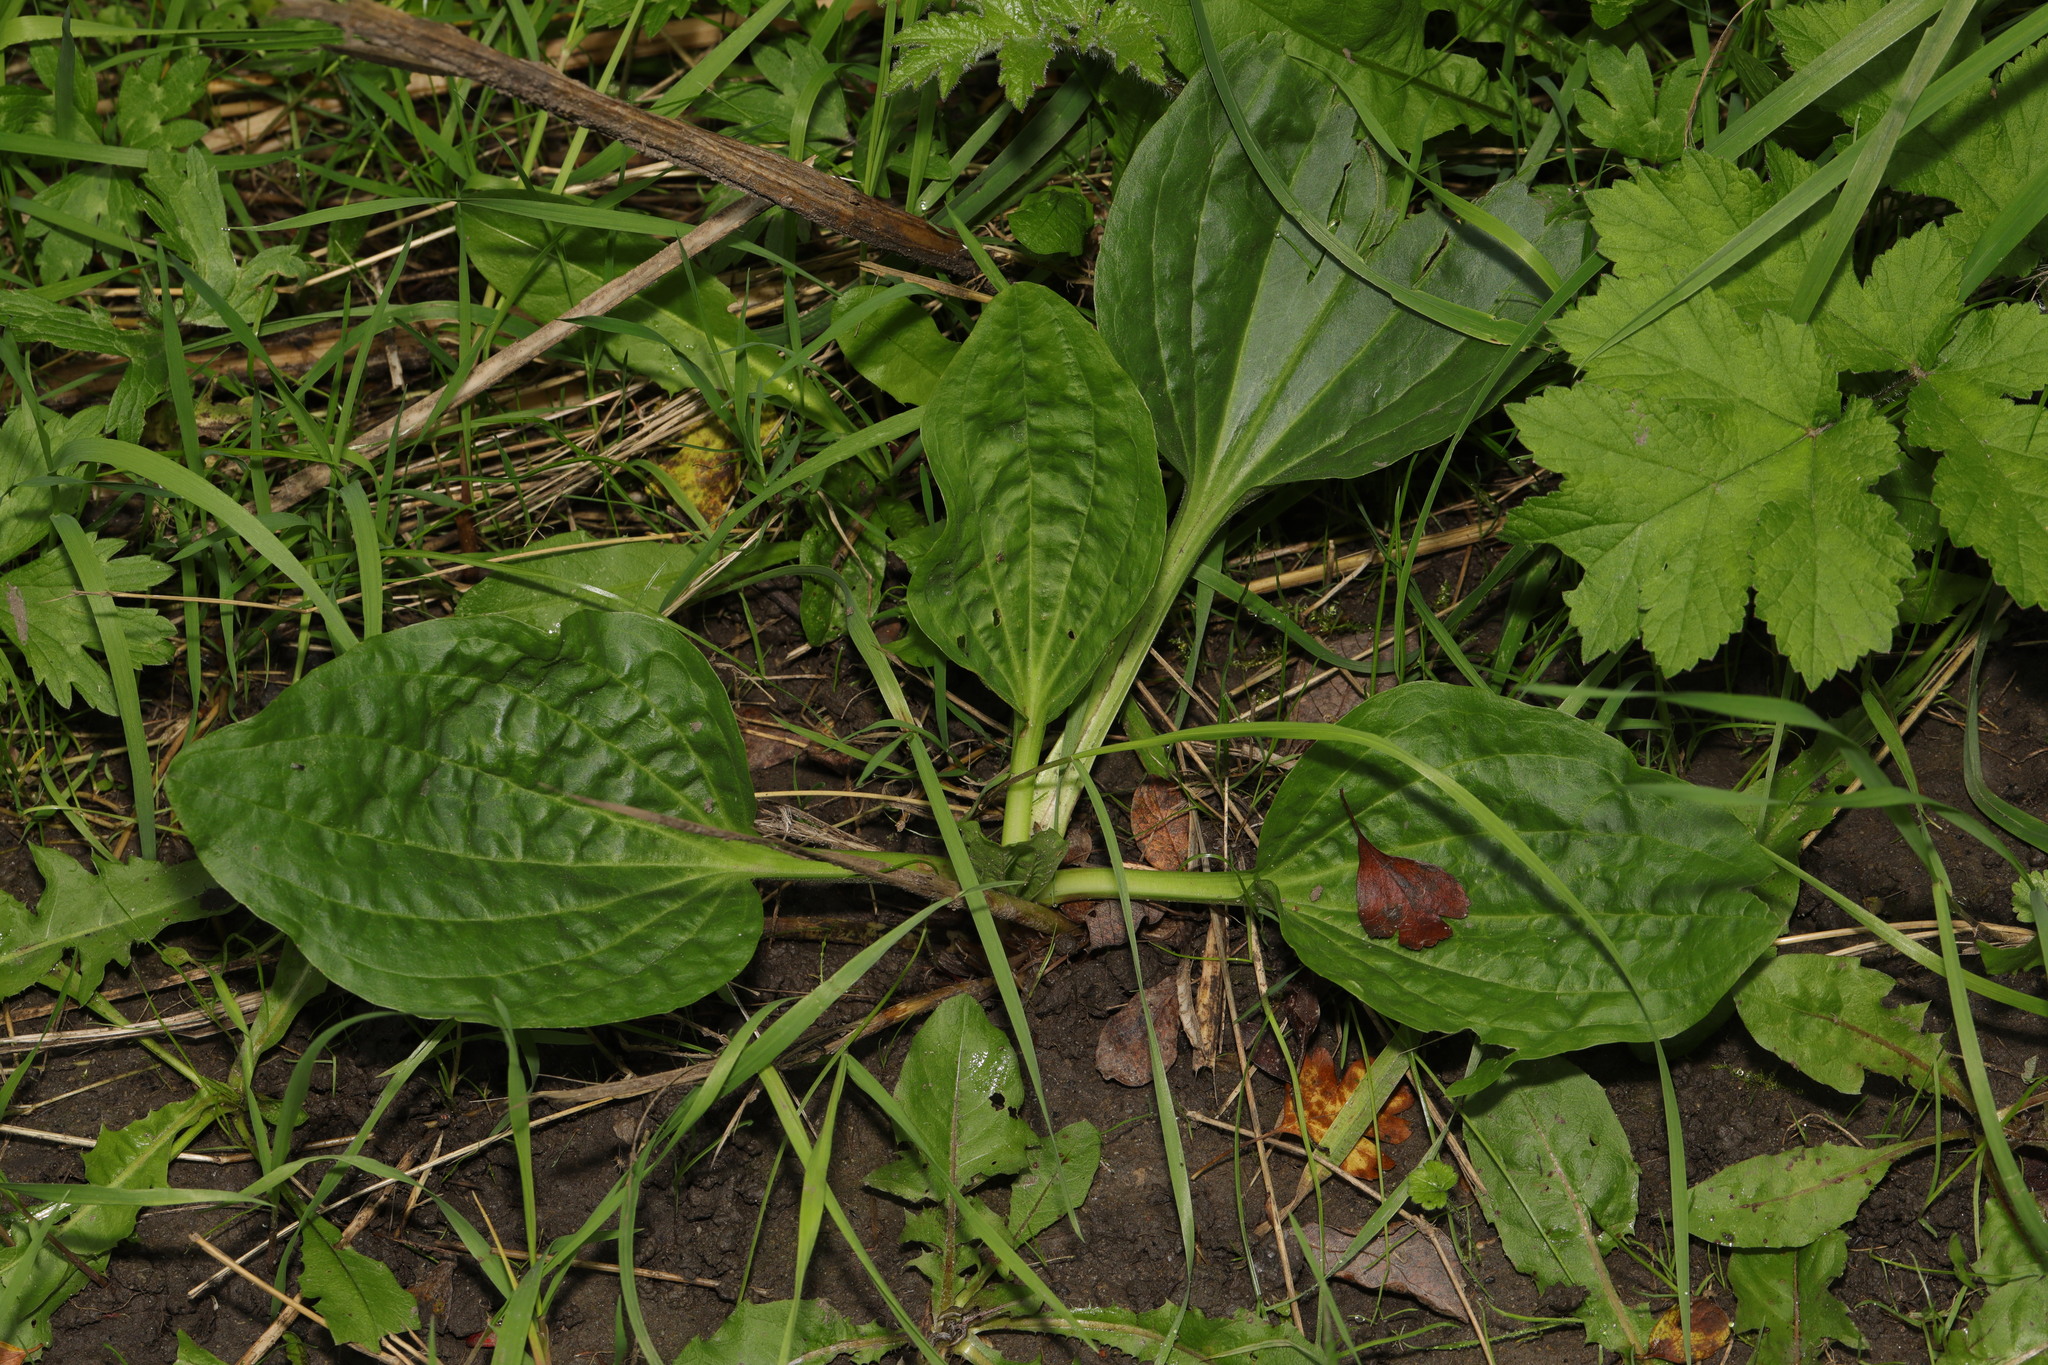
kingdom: Plantae
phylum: Tracheophyta
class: Magnoliopsida
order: Lamiales
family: Plantaginaceae
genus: Plantago
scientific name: Plantago major
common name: Common plantain
